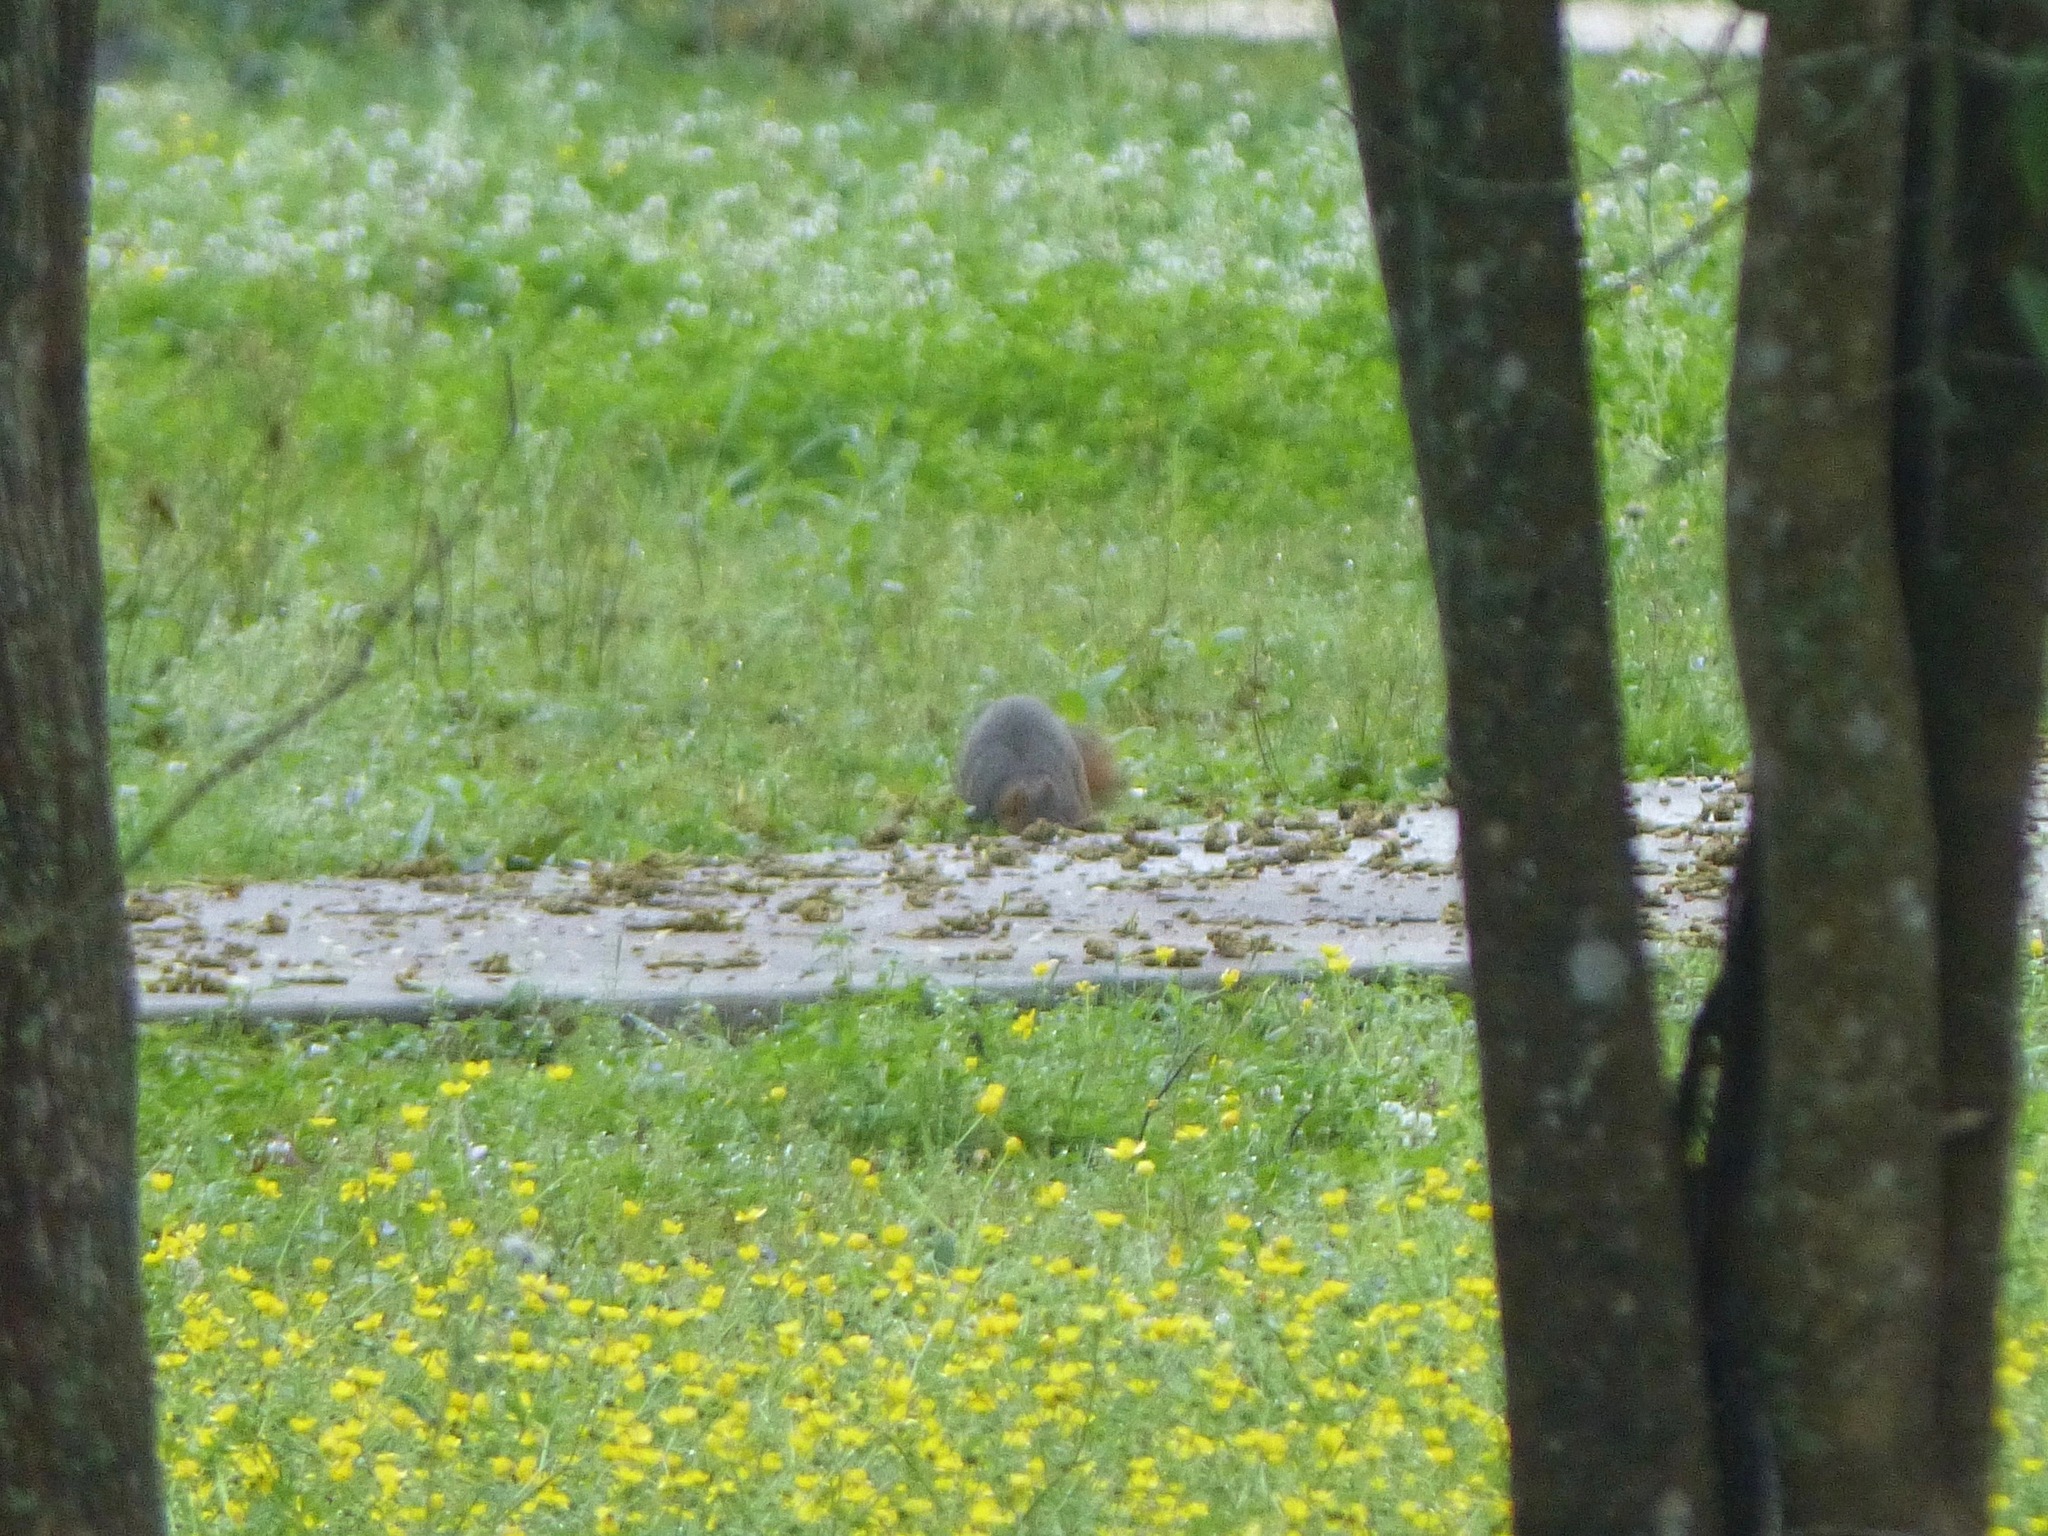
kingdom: Animalia
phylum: Chordata
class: Mammalia
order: Rodentia
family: Sciuridae
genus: Sciurus
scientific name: Sciurus niger
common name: Fox squirrel
